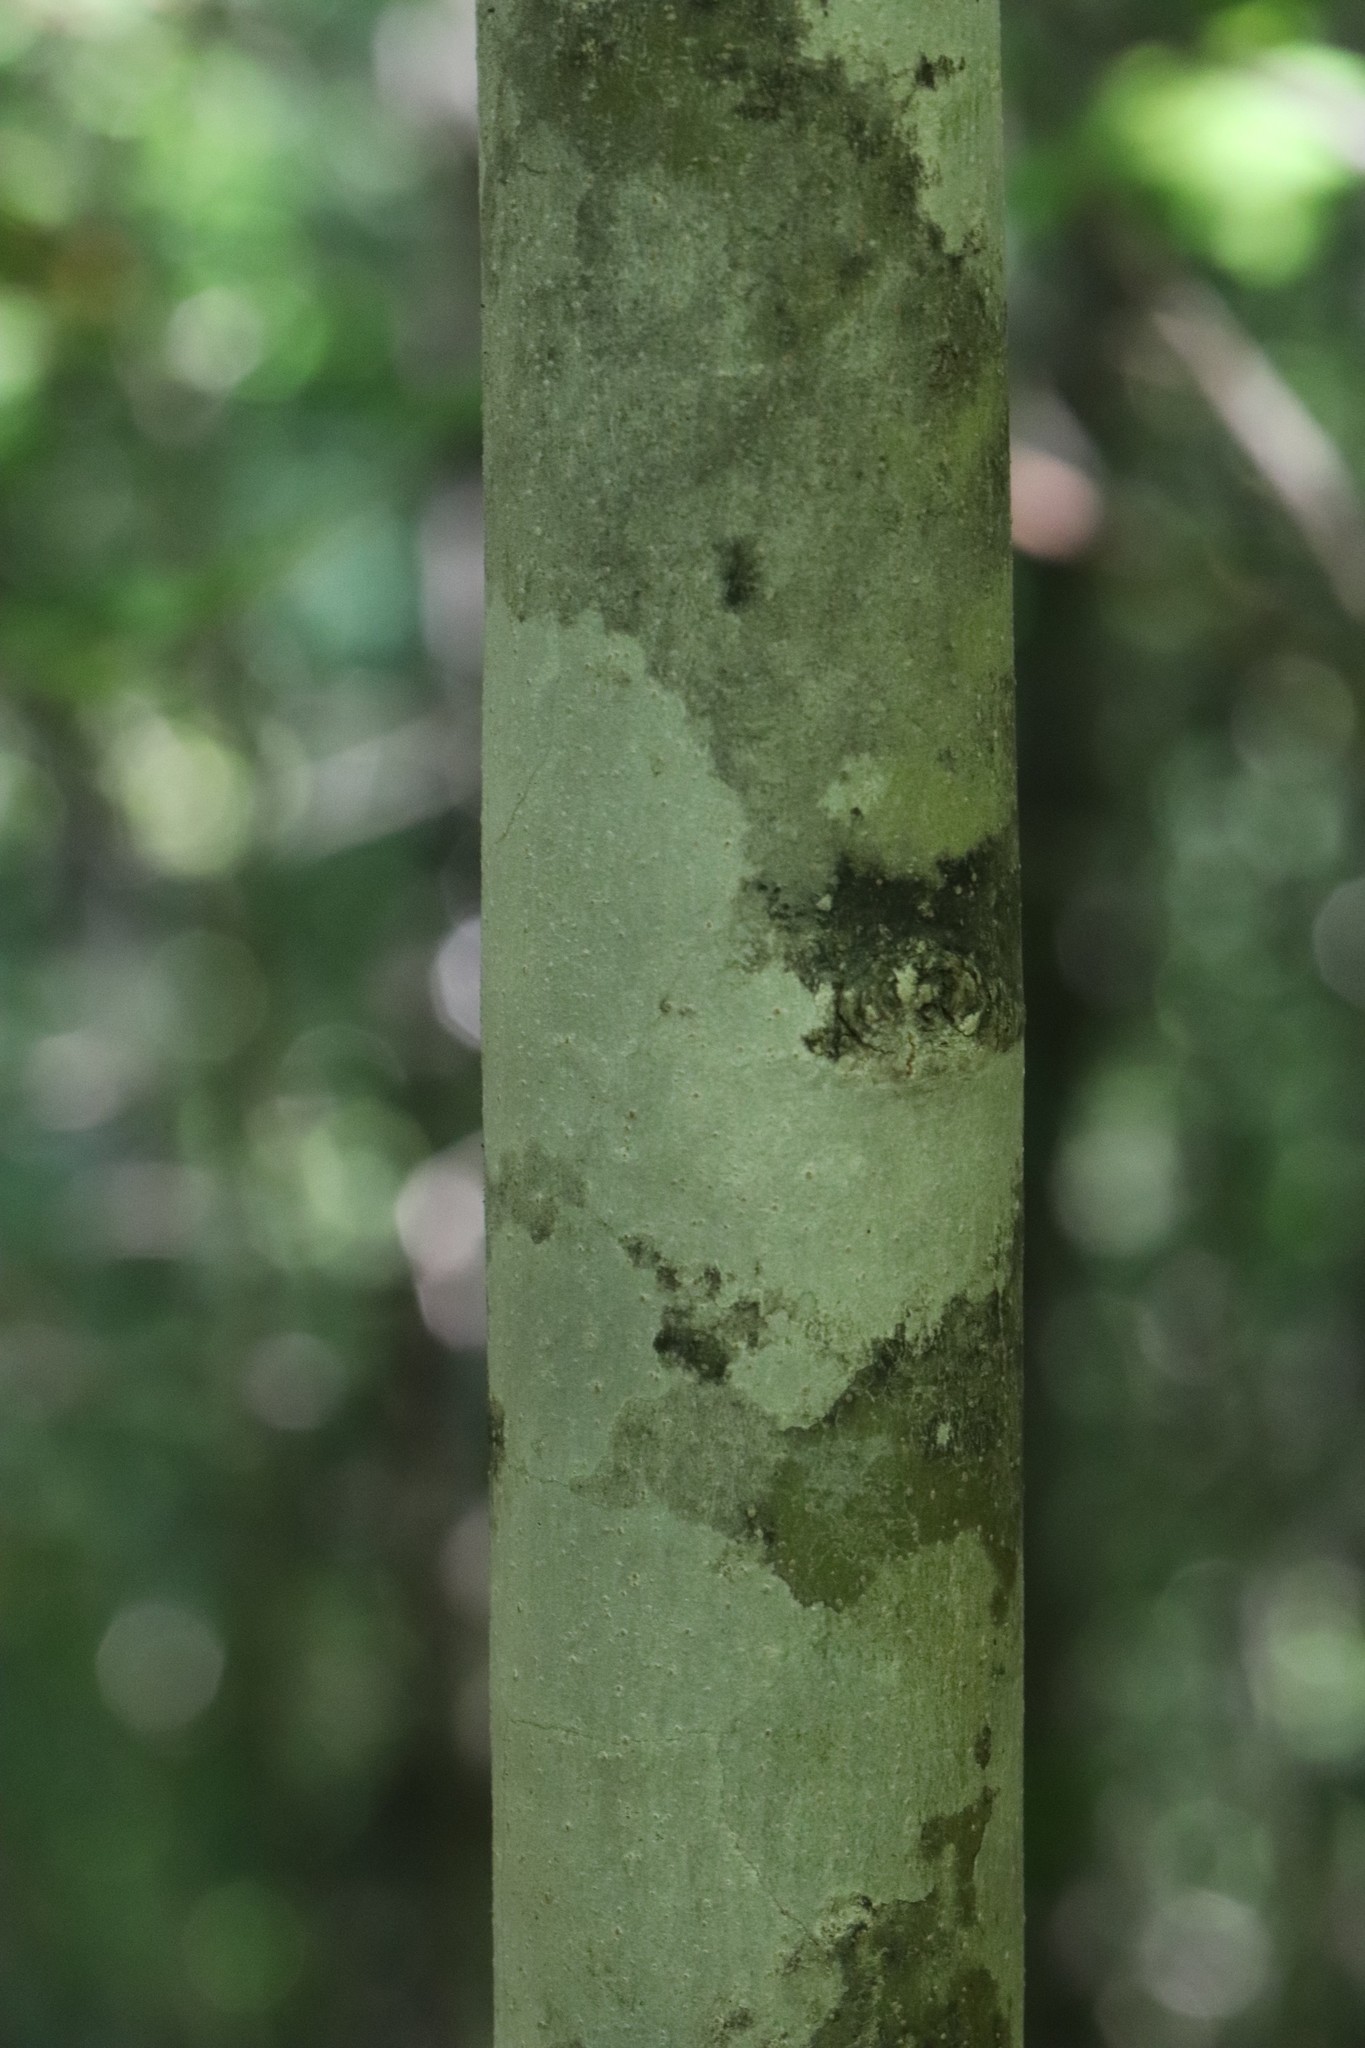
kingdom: Plantae
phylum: Tracheophyta
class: Magnoliopsida
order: Lamiales
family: Oleaceae
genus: Fraxinus
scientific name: Fraxinus chinensis
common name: Chinese ash
